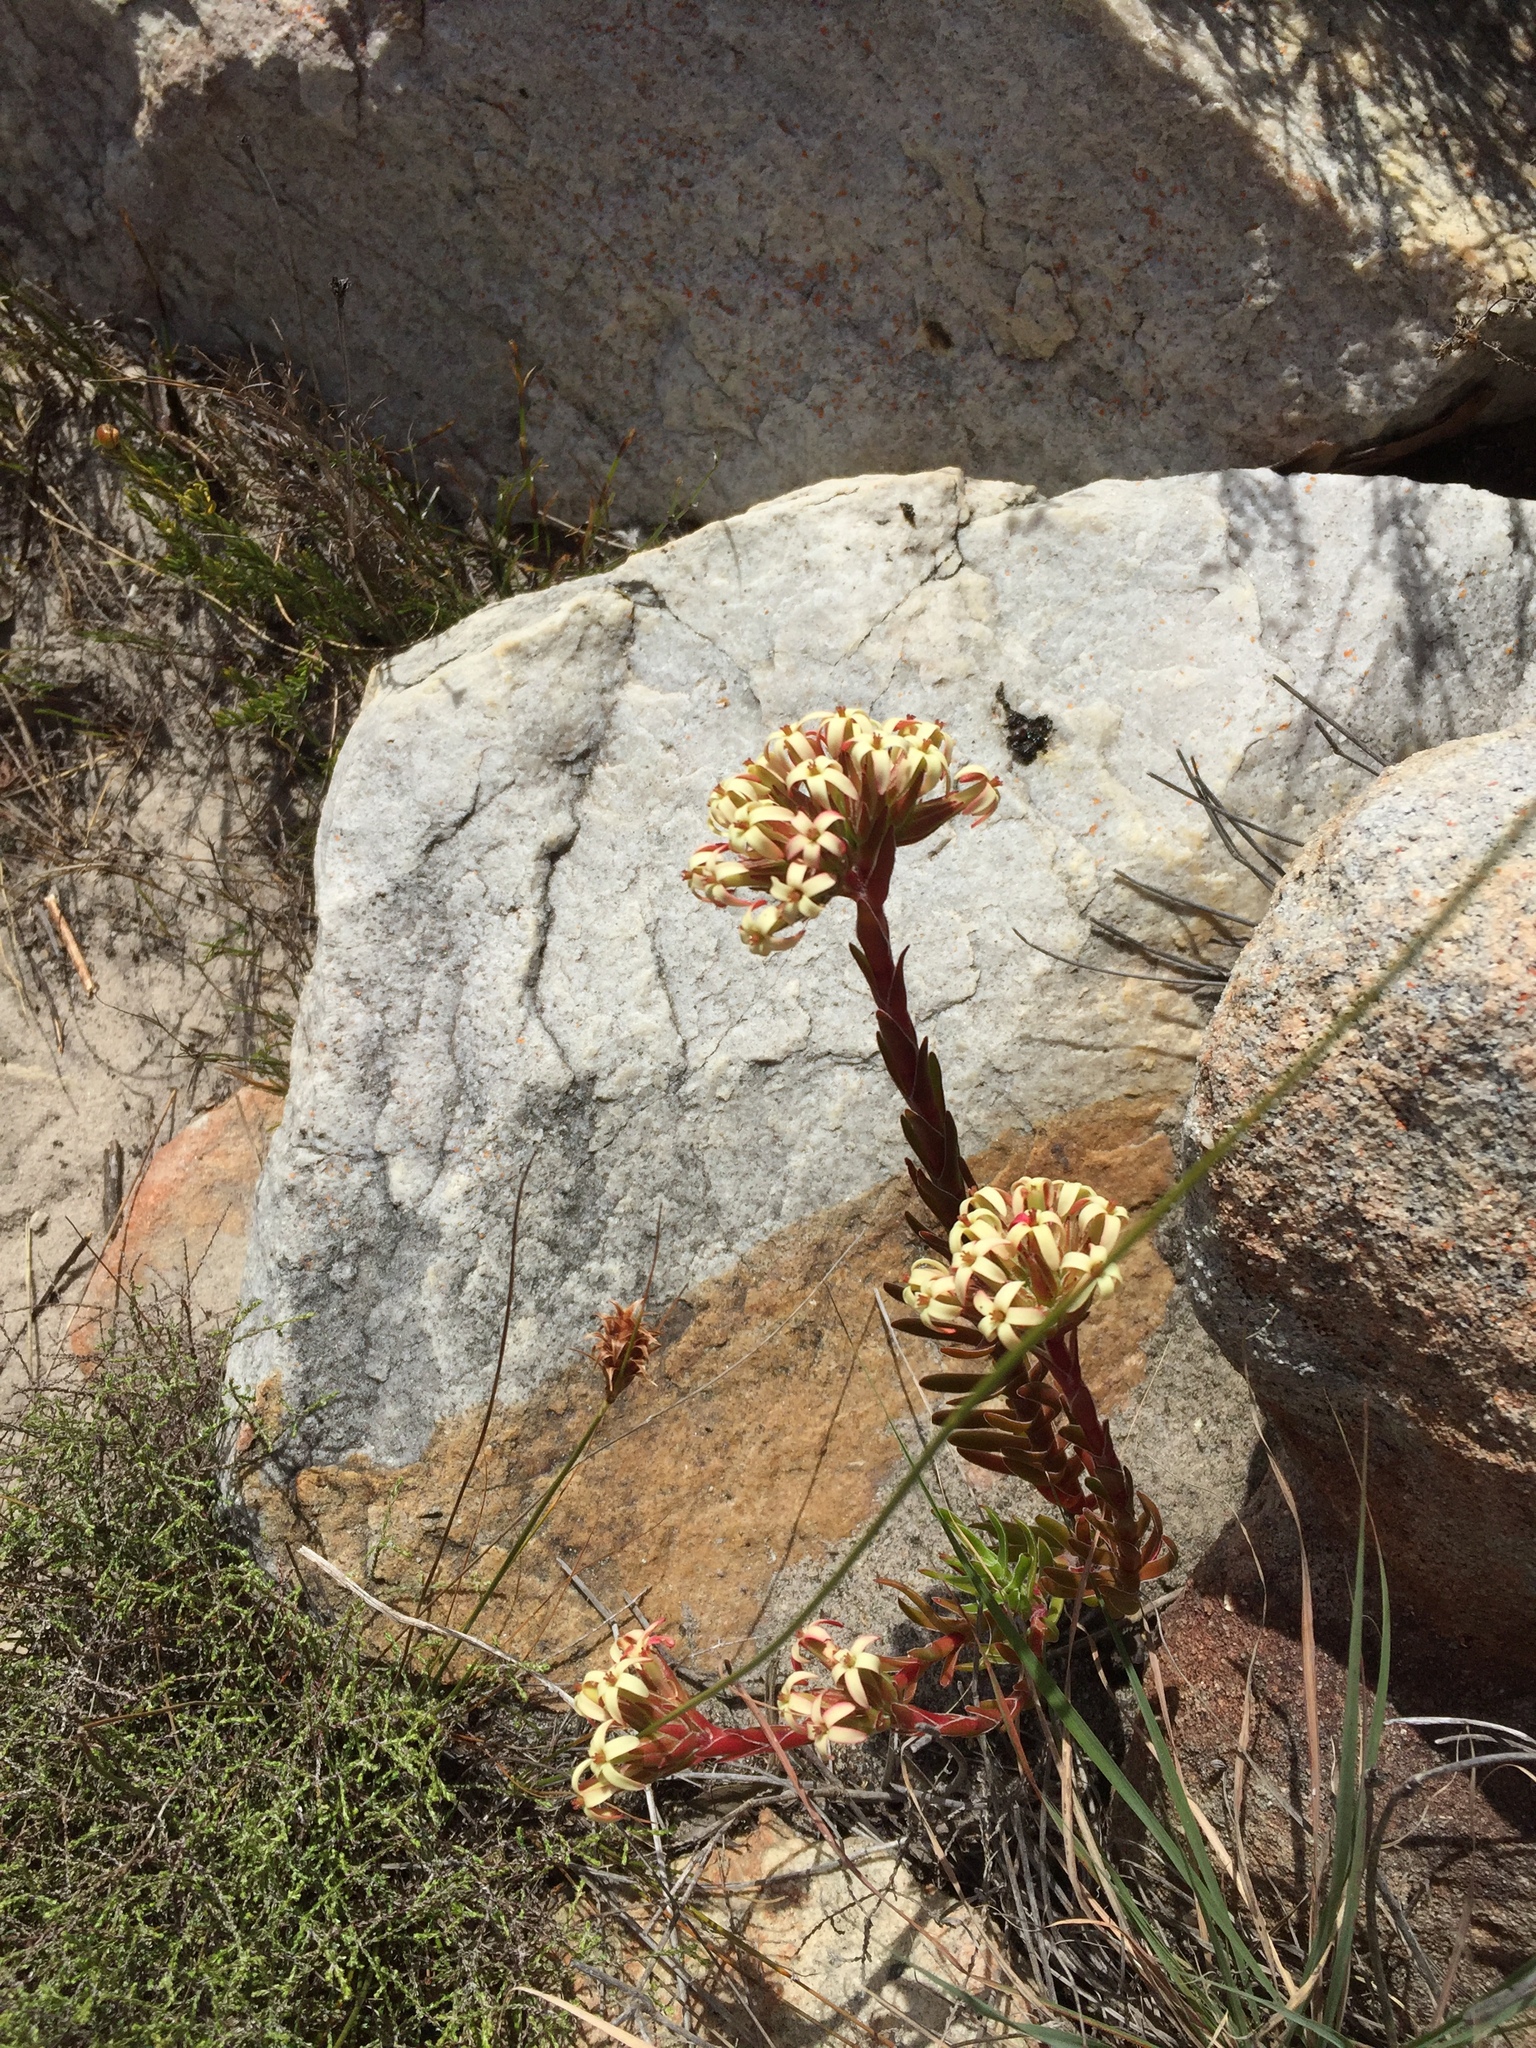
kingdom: Plantae
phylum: Tracheophyta
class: Magnoliopsida
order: Saxifragales
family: Crassulaceae
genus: Crassula
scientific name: Crassula fascicularis
